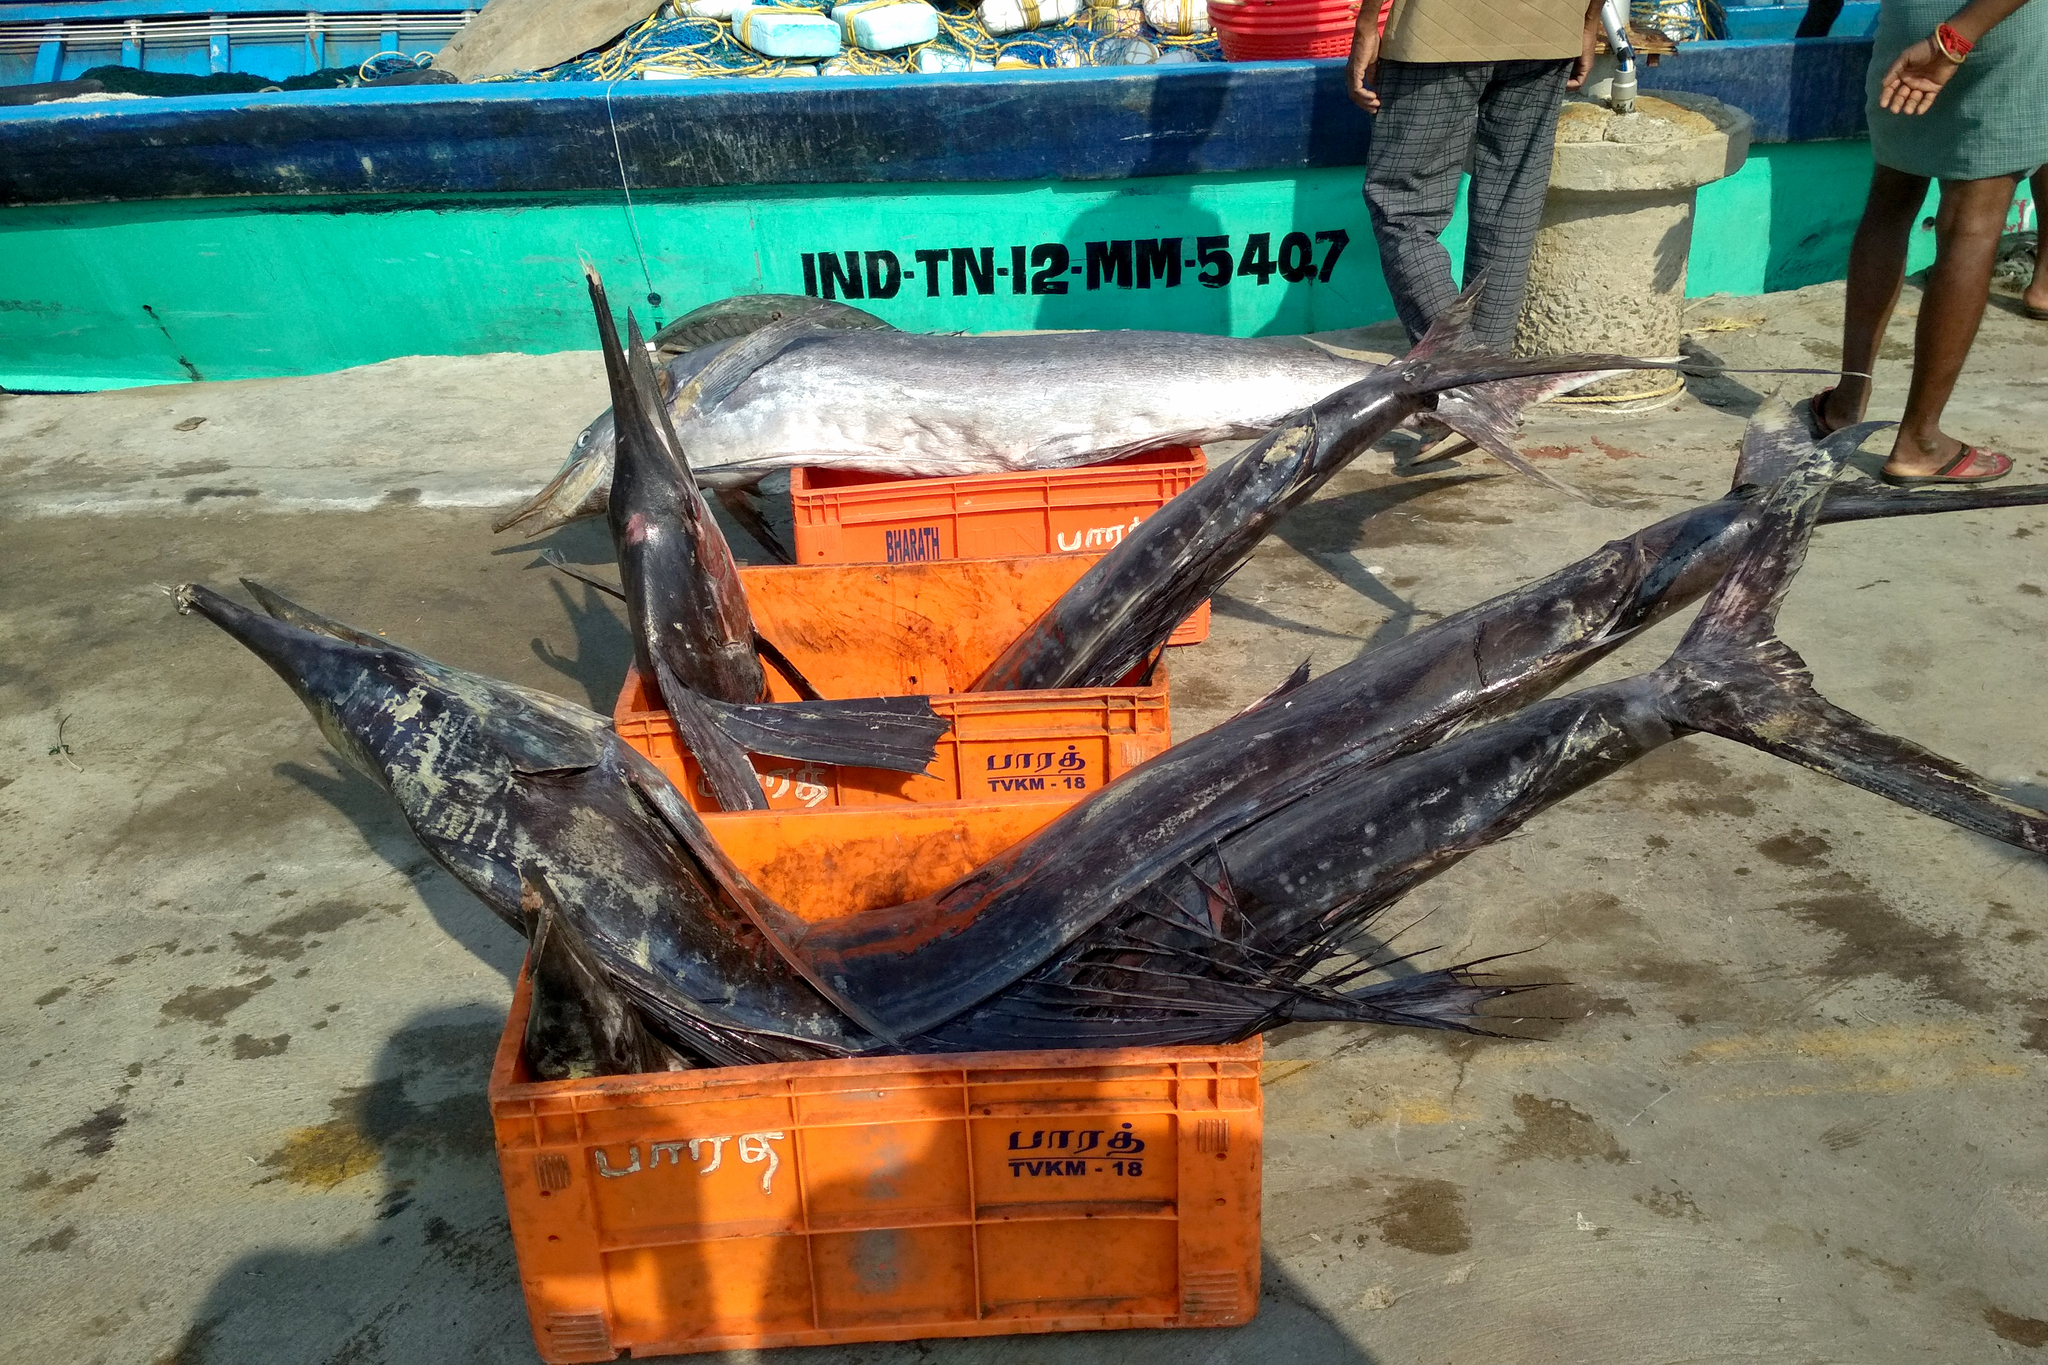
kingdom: Animalia
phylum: Chordata
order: Perciformes
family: Istiophoridae
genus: Istiophorus
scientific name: Istiophorus platypterus
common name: Sailfish
